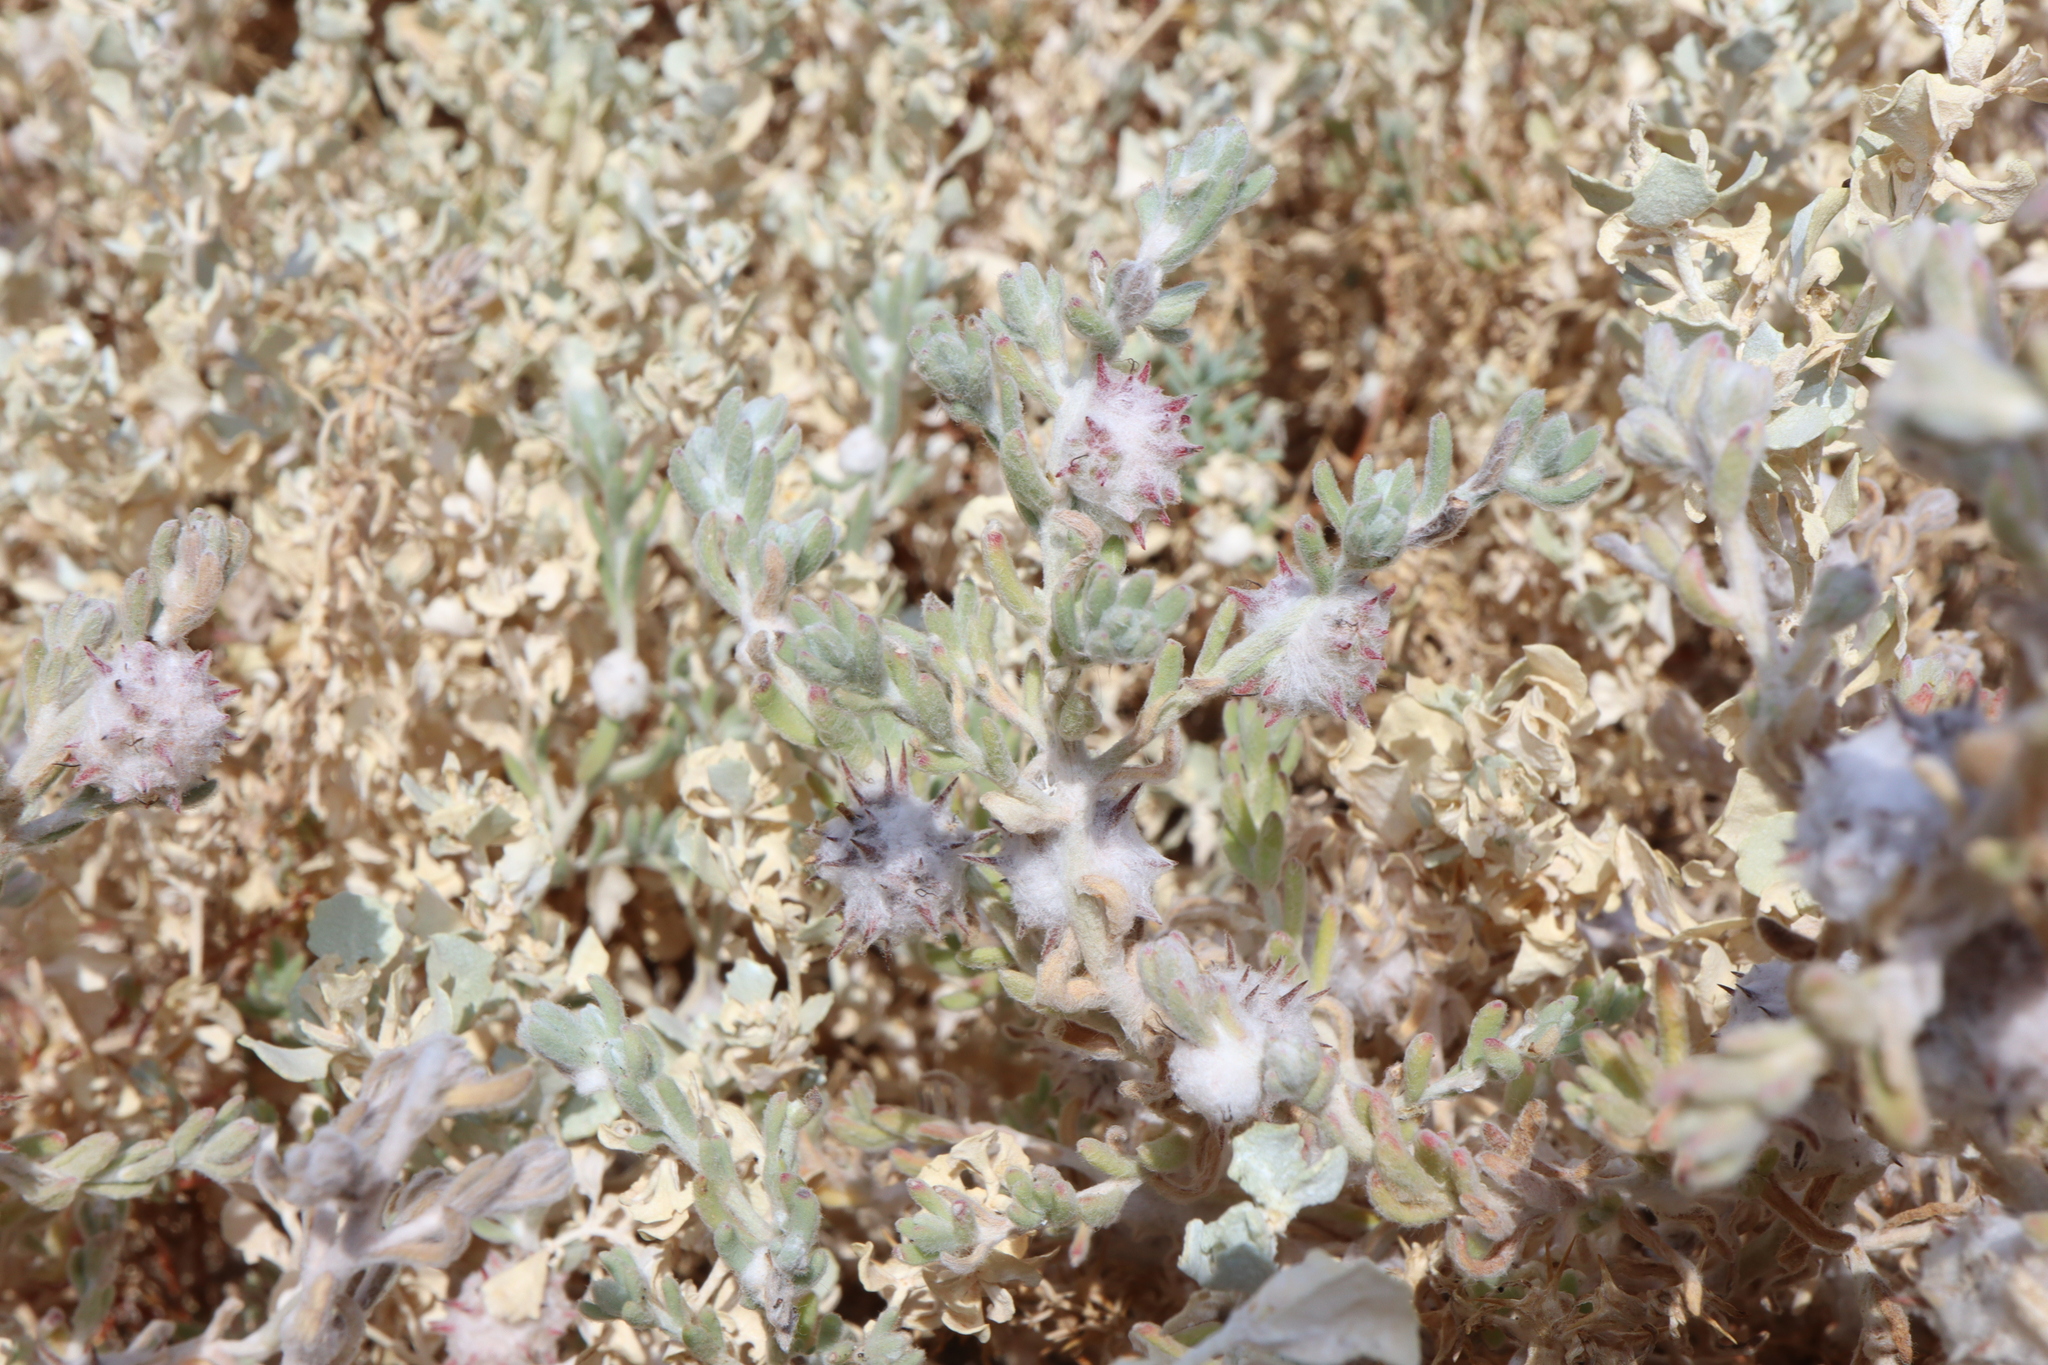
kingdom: Plantae
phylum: Tracheophyta
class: Magnoliopsida
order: Caryophyllales
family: Amaranthaceae
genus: Dissocarpus
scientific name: Dissocarpus paradoxus
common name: Bur-saltbush
